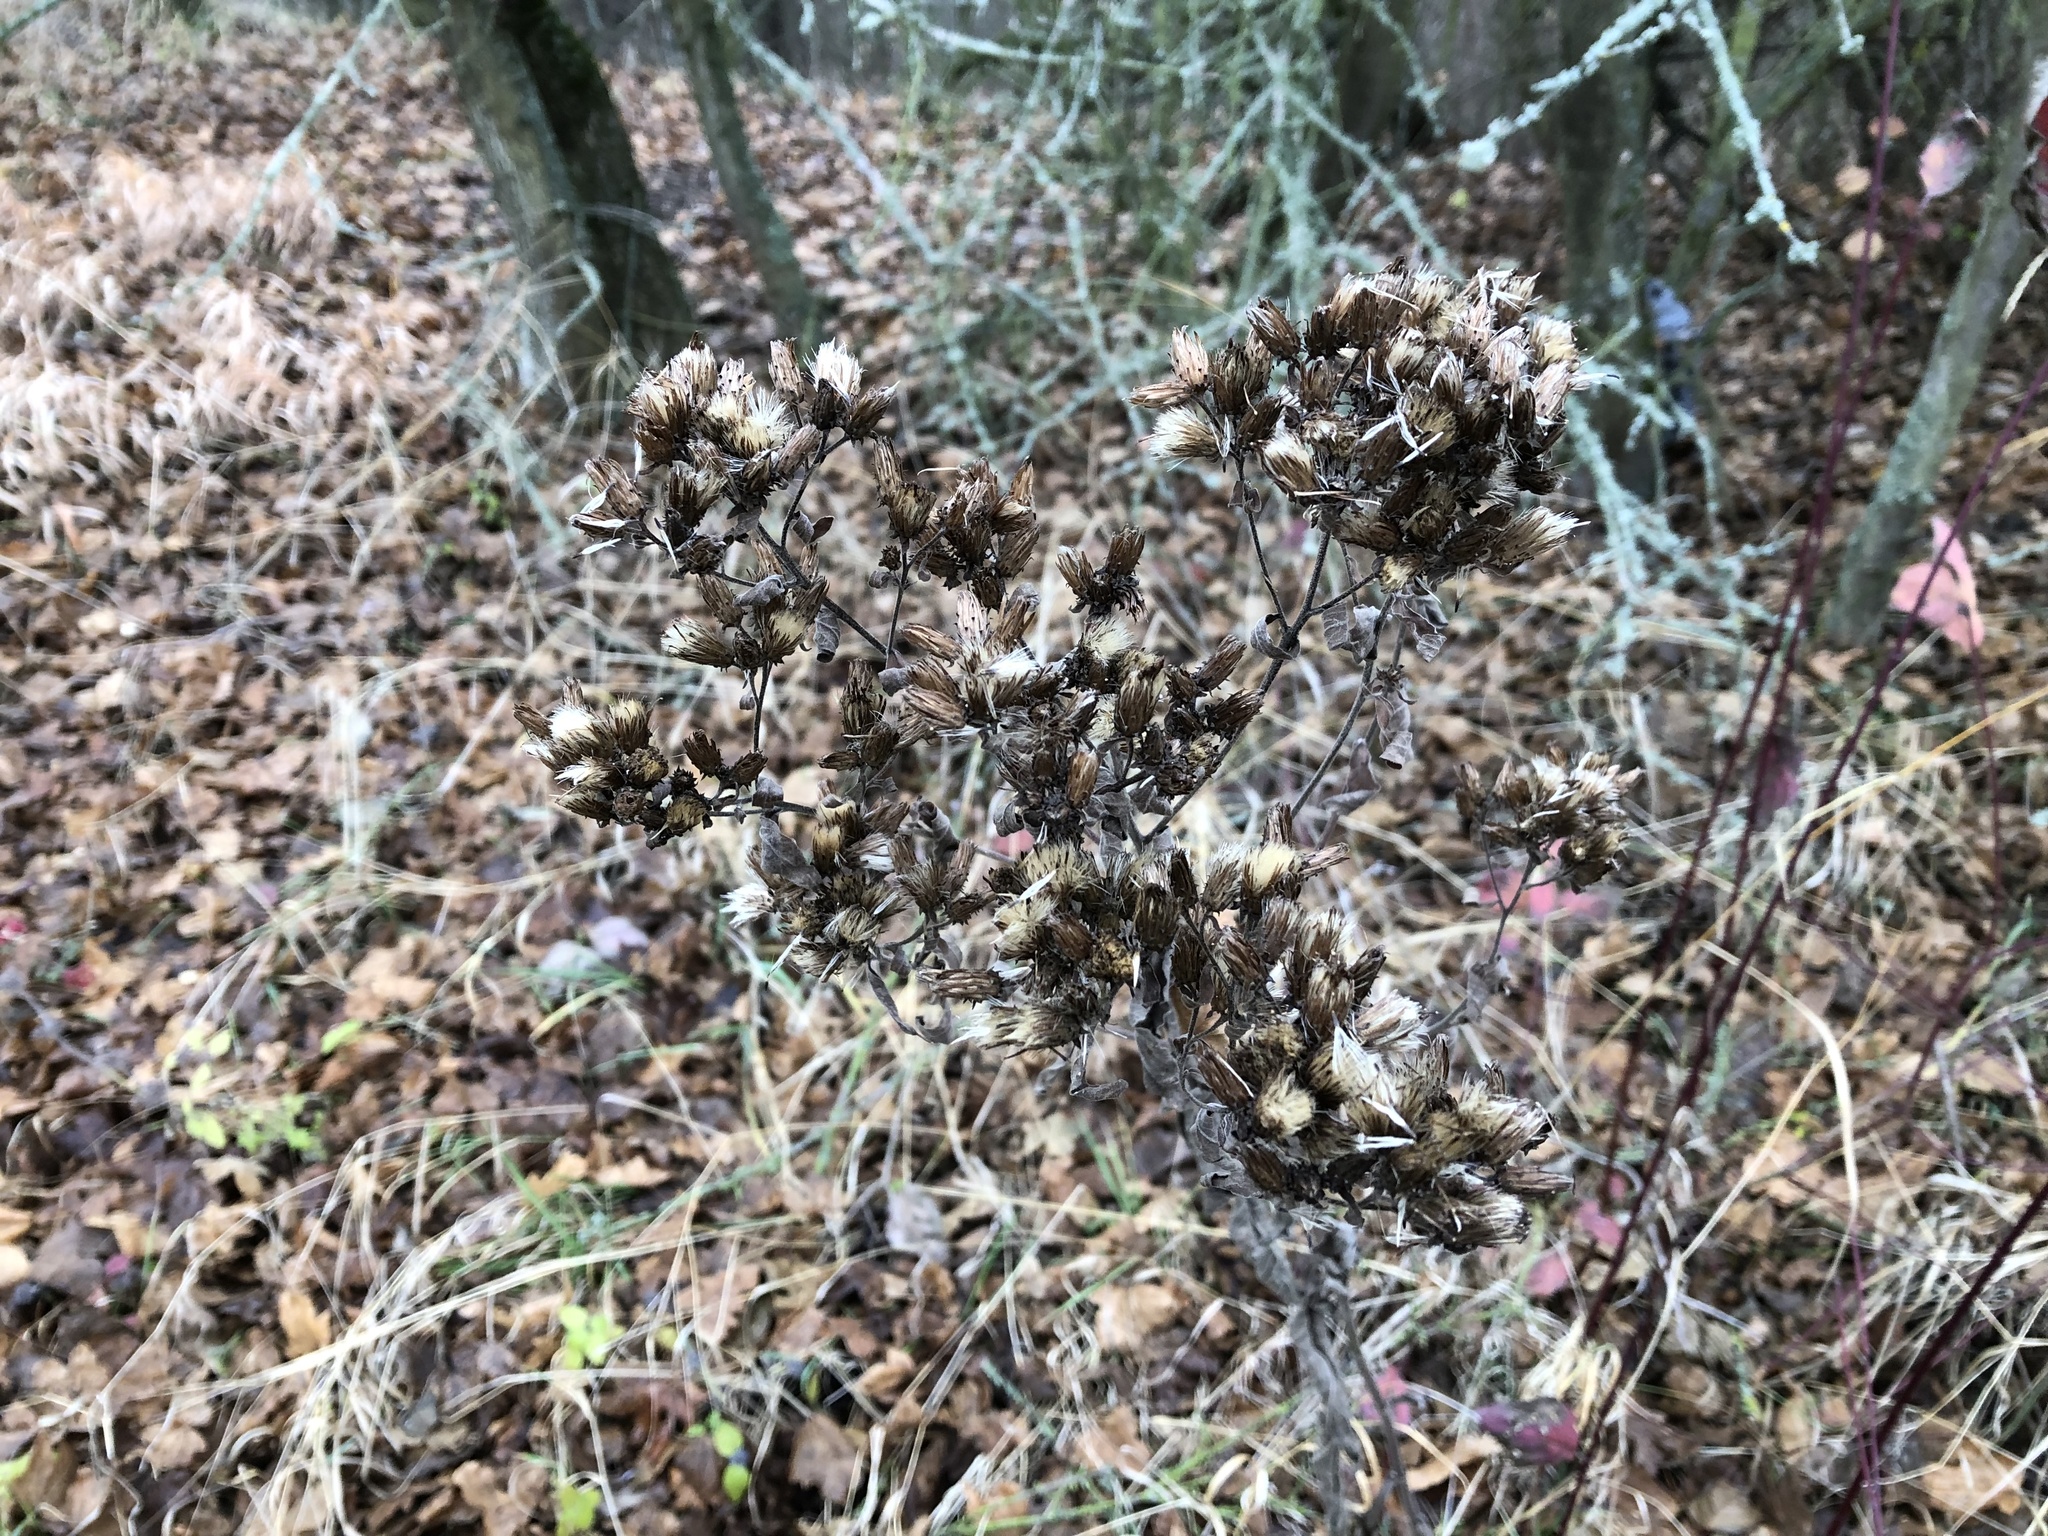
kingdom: Plantae
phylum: Tracheophyta
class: Magnoliopsida
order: Asterales
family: Asteraceae
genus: Pentanema
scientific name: Pentanema squarrosum
